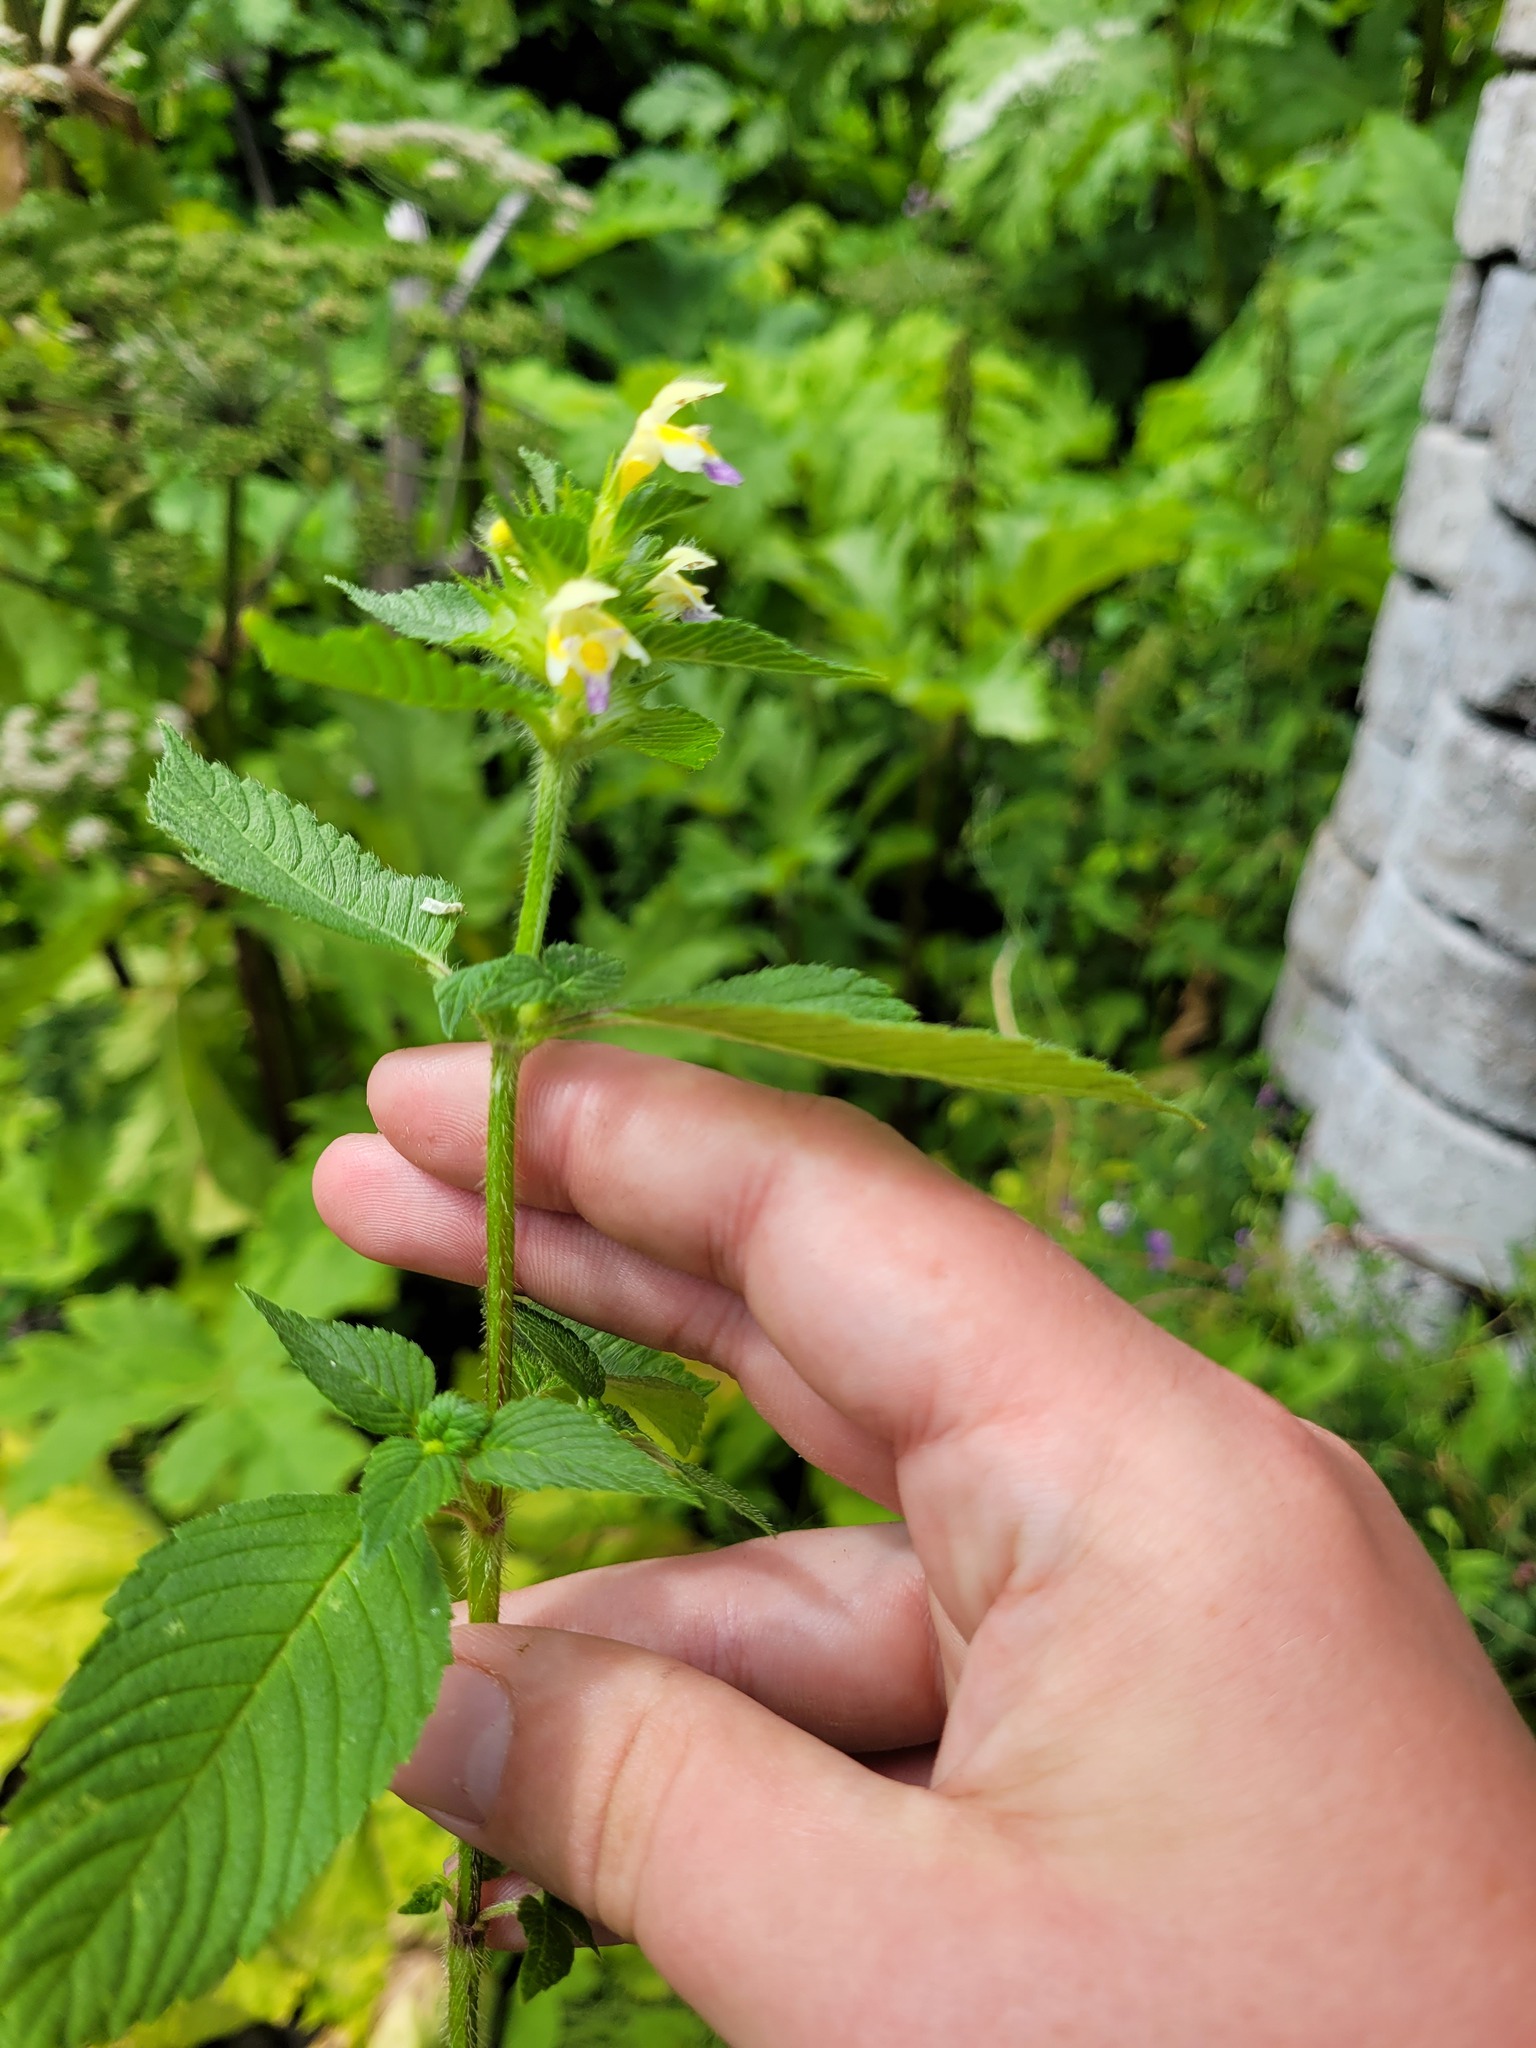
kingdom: Plantae
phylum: Tracheophyta
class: Magnoliopsida
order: Lamiales
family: Lamiaceae
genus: Galeopsis
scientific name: Galeopsis speciosa
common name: Large-flowered hemp-nettle
